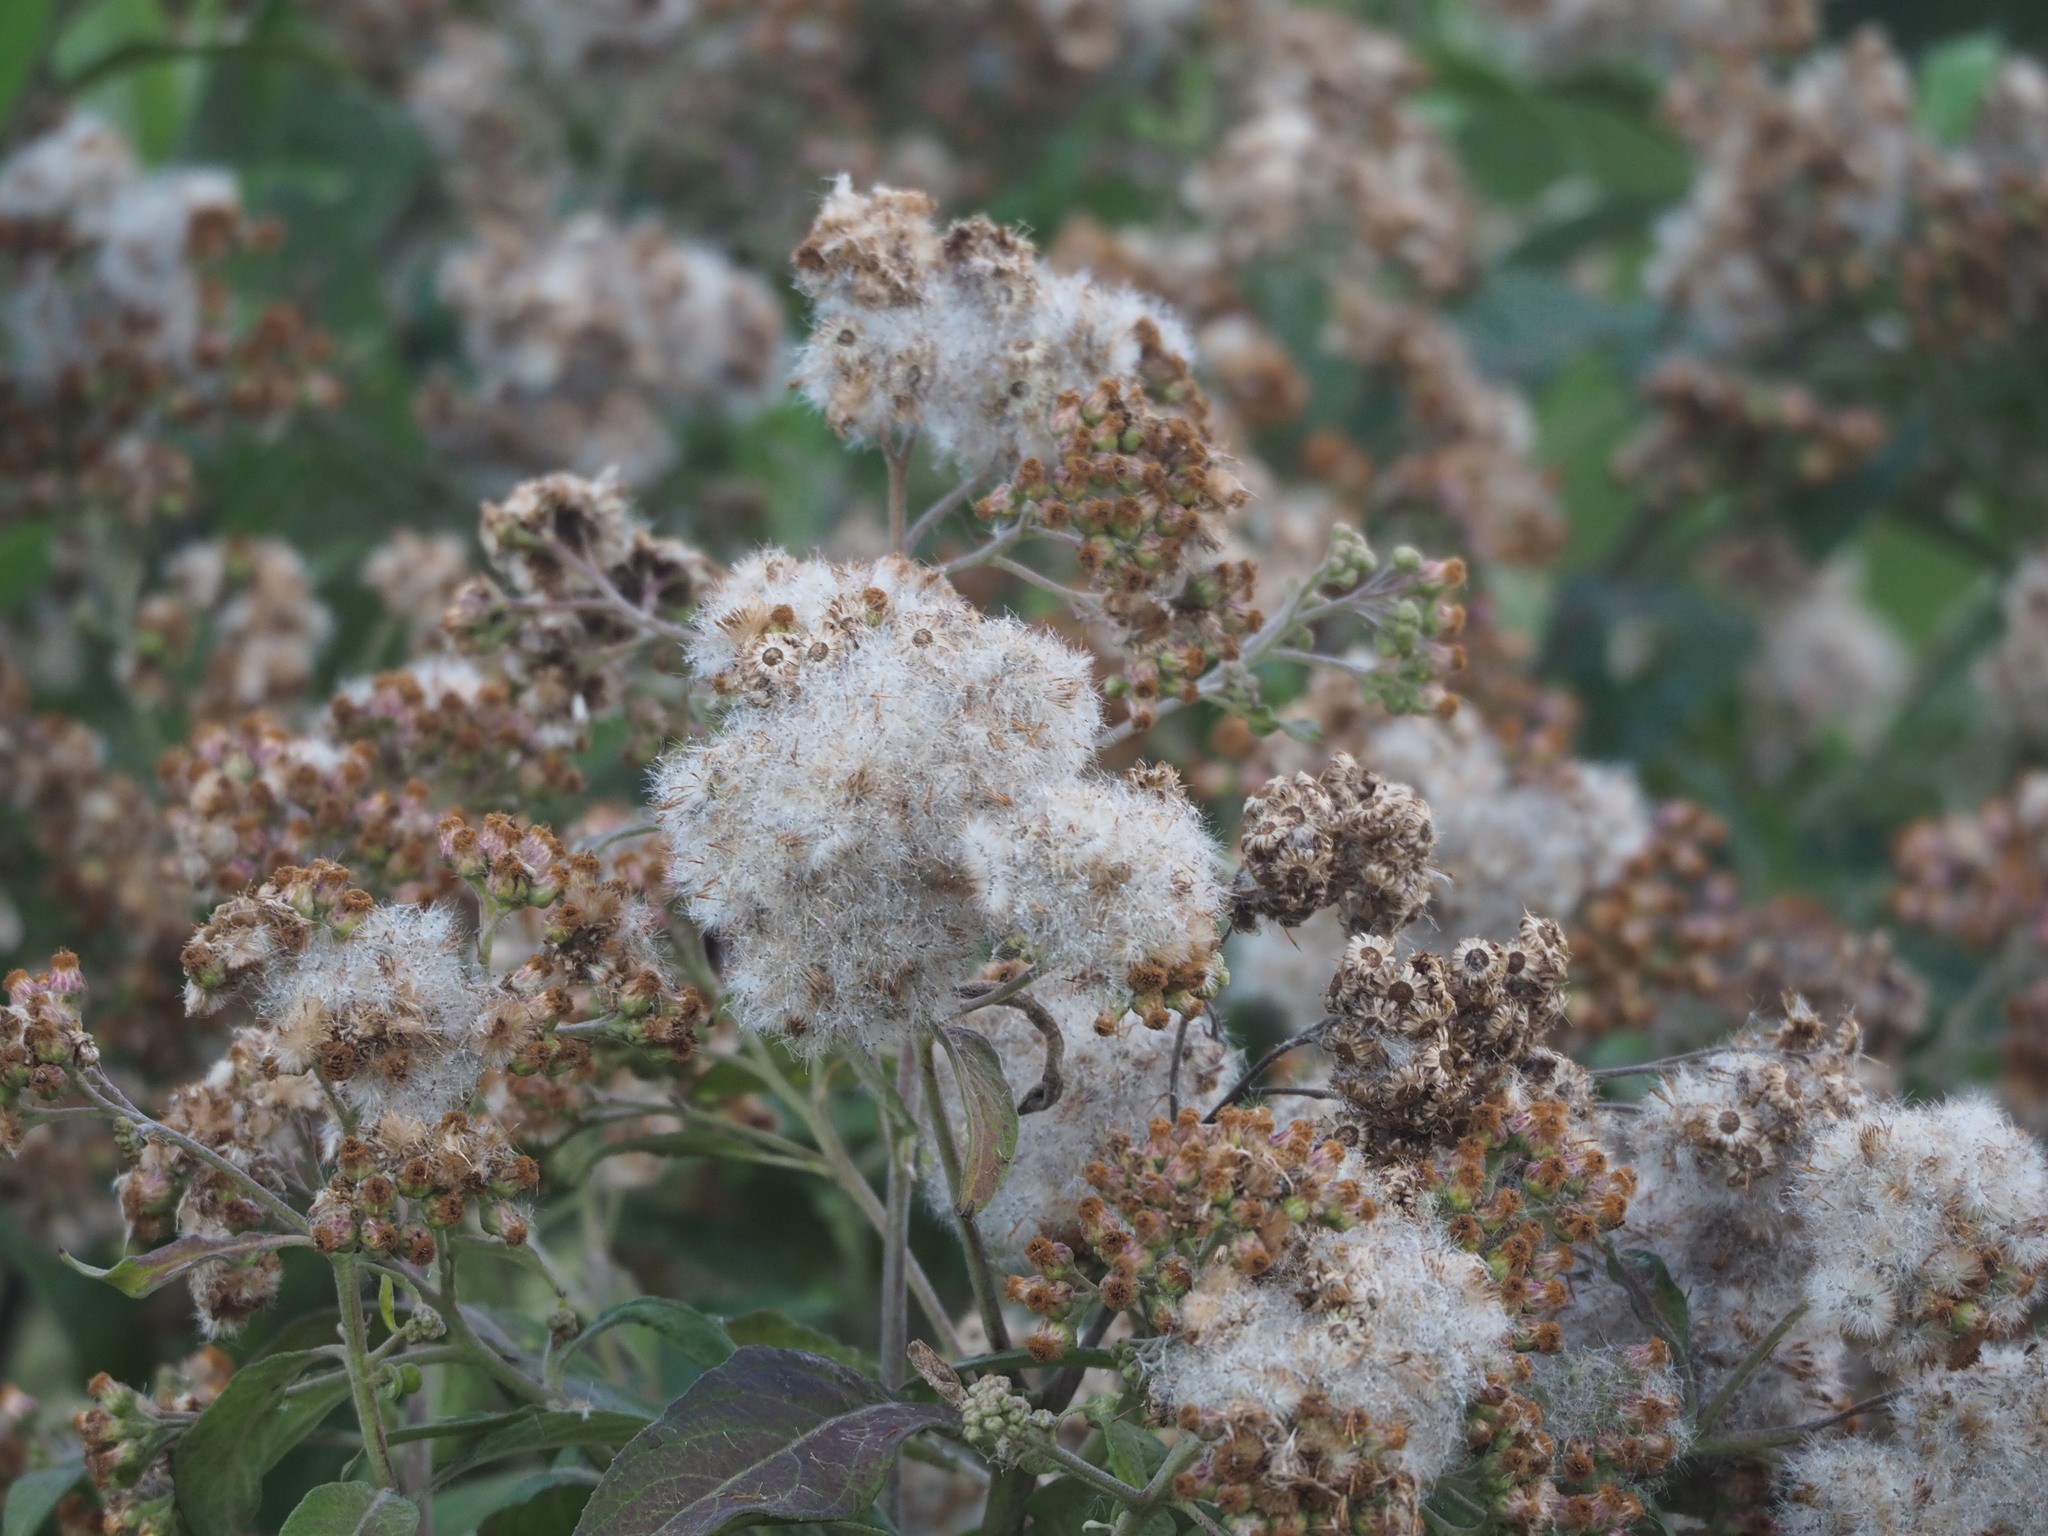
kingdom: Plantae
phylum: Tracheophyta
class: Magnoliopsida
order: Asterales
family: Asteraceae
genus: Pluchea
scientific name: Pluchea carolinensis
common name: Marsh fleabane
